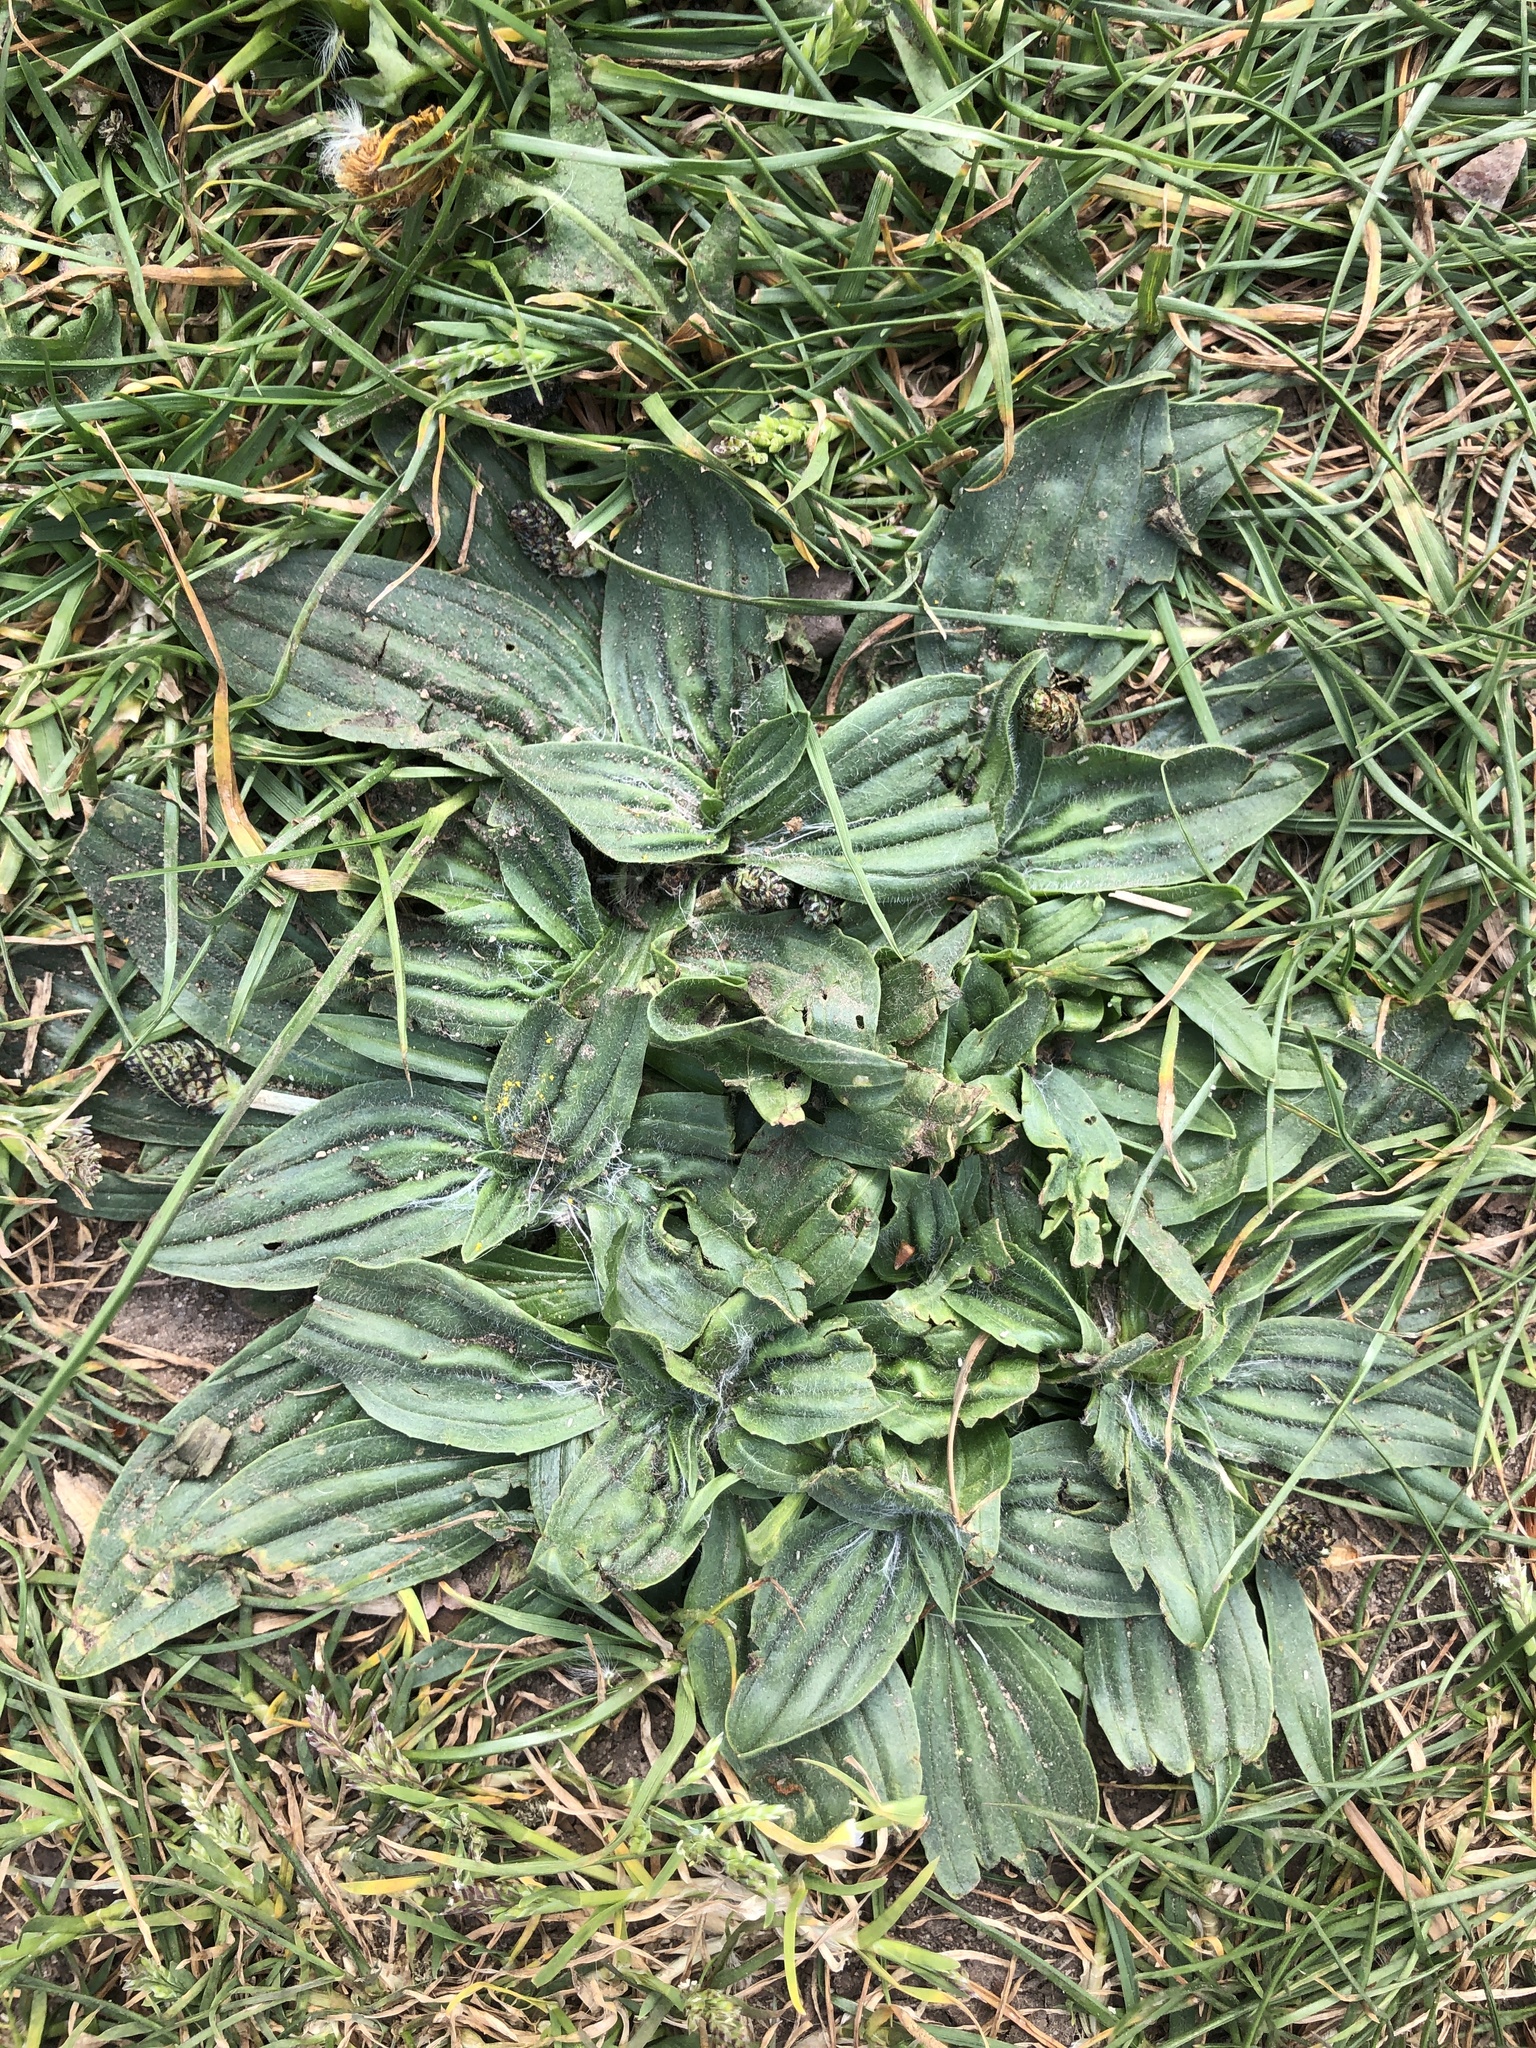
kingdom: Plantae
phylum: Tracheophyta
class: Magnoliopsida
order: Lamiales
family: Plantaginaceae
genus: Plantago
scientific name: Plantago lanceolata
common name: Ribwort plantain
